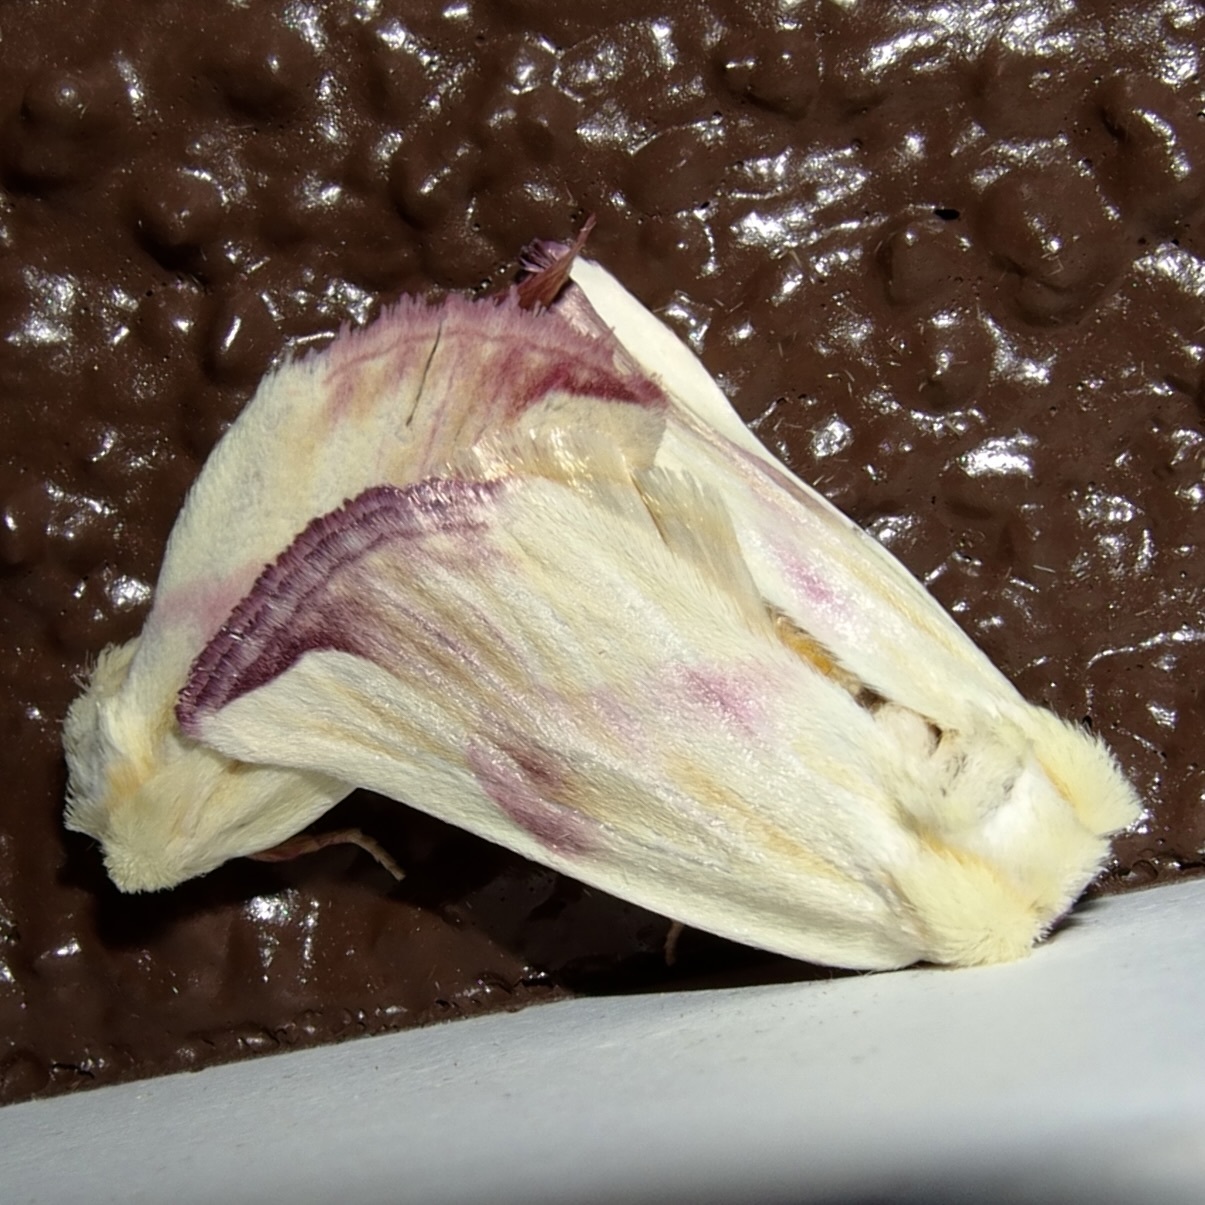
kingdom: Animalia
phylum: Arthropoda
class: Insecta
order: Lepidoptera
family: Noctuidae
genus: Thurberiphaga
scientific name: Thurberiphaga diffusa
